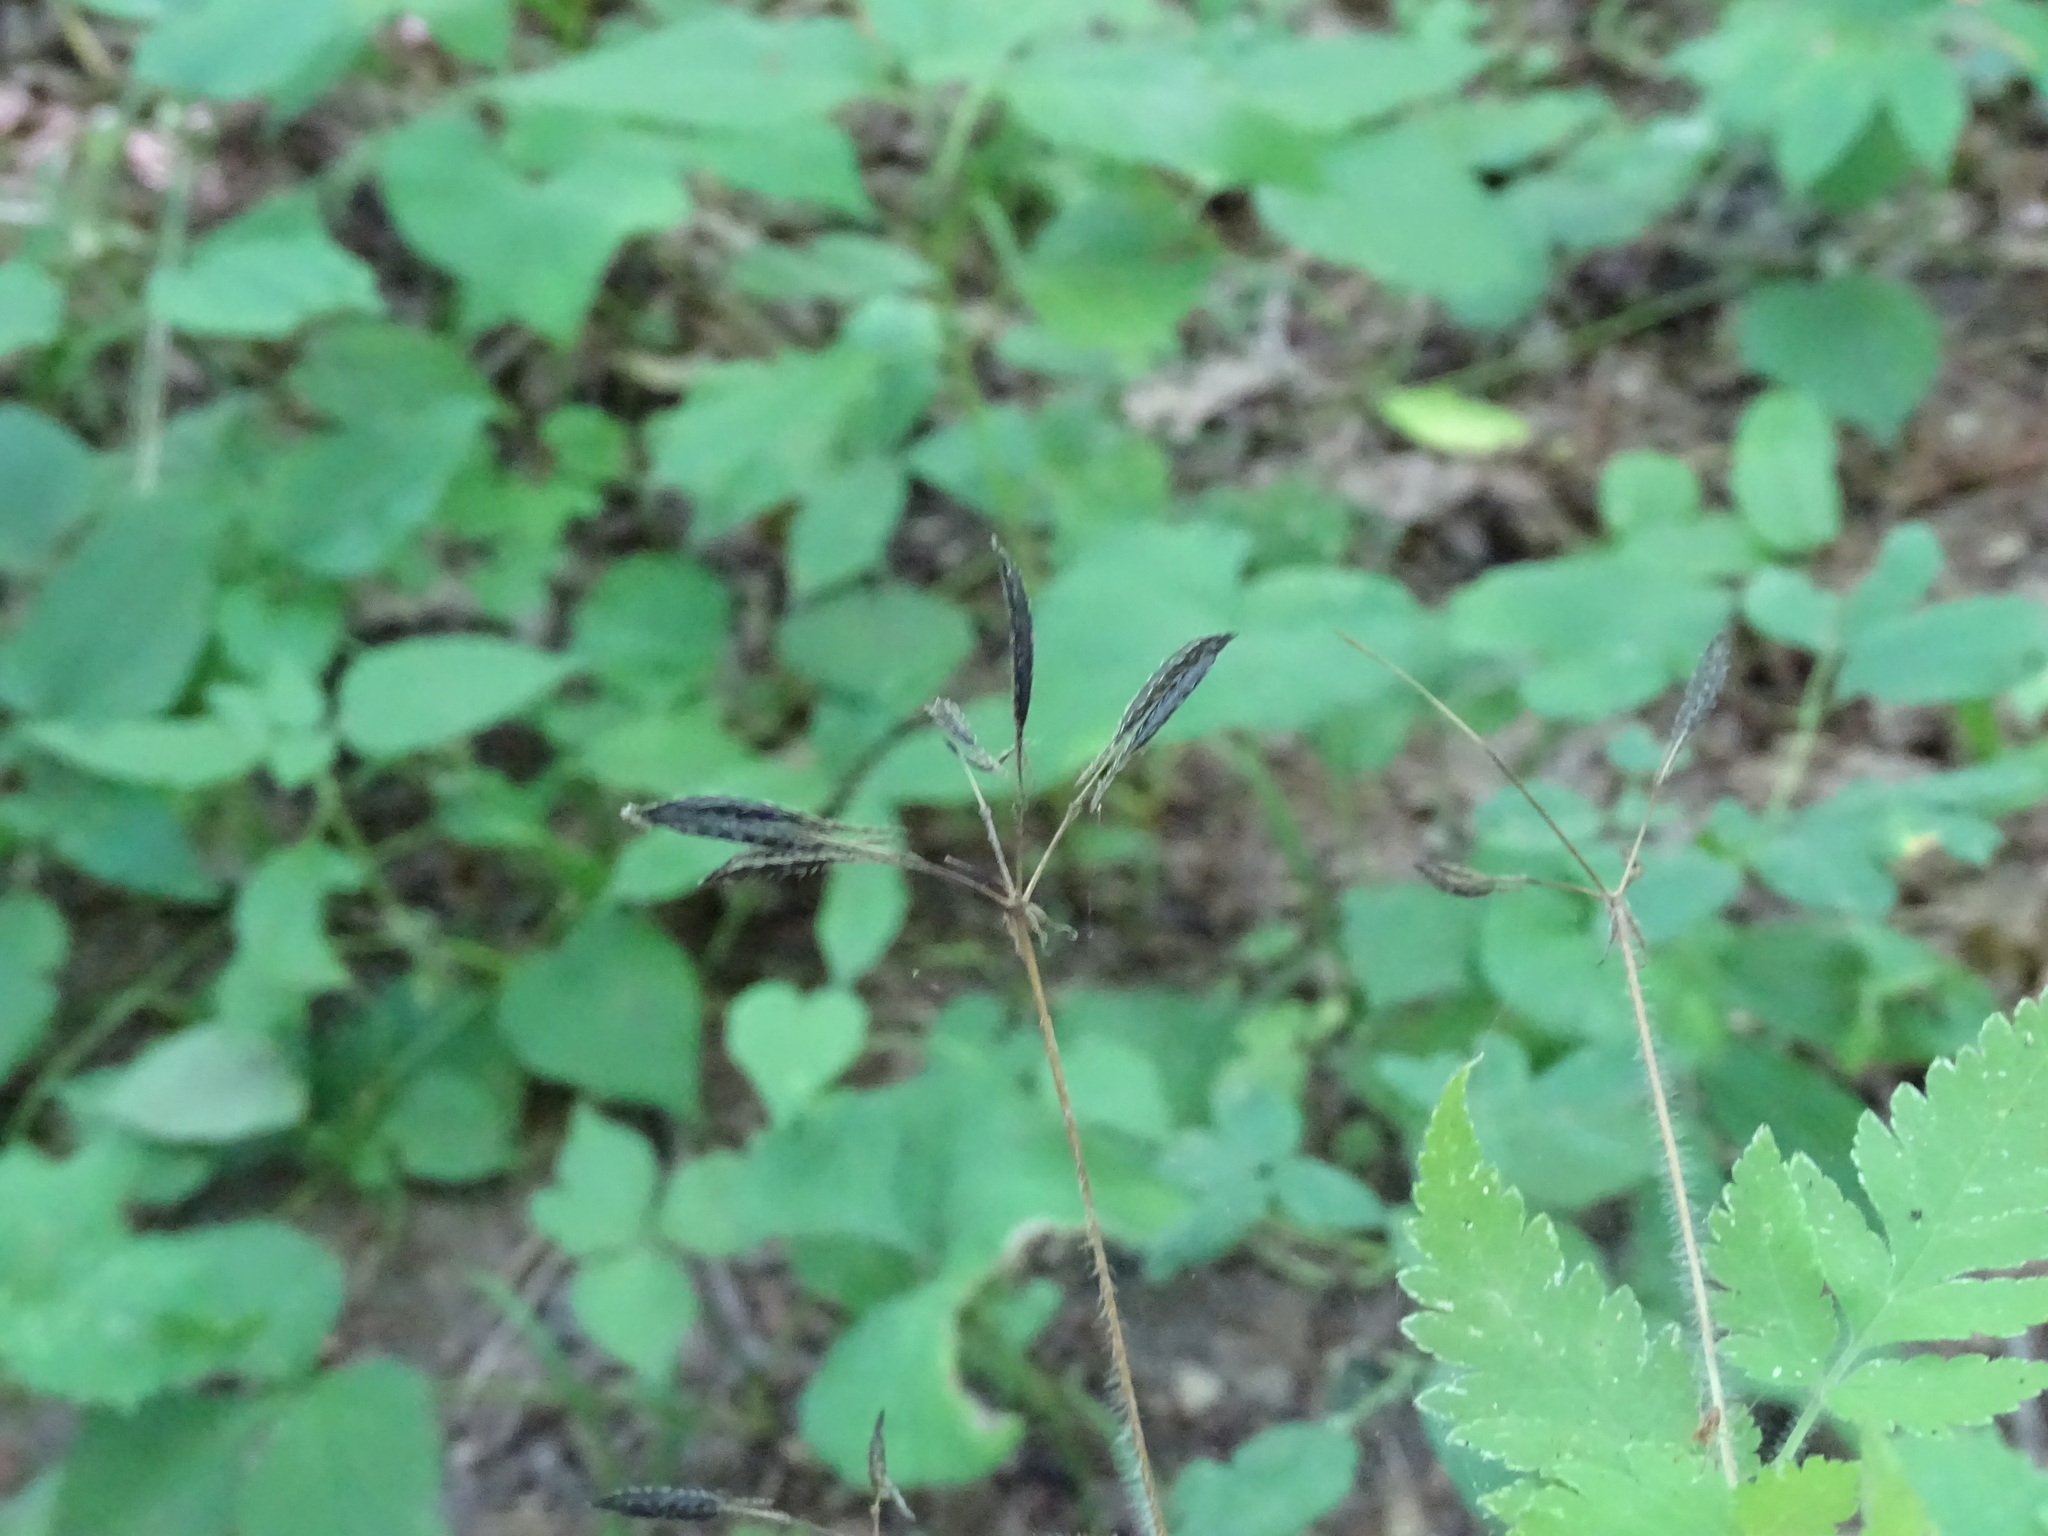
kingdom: Plantae
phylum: Tracheophyta
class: Magnoliopsida
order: Apiales
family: Apiaceae
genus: Osmorhiza
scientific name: Osmorhiza claytonii
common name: Hairy sweet cicely
